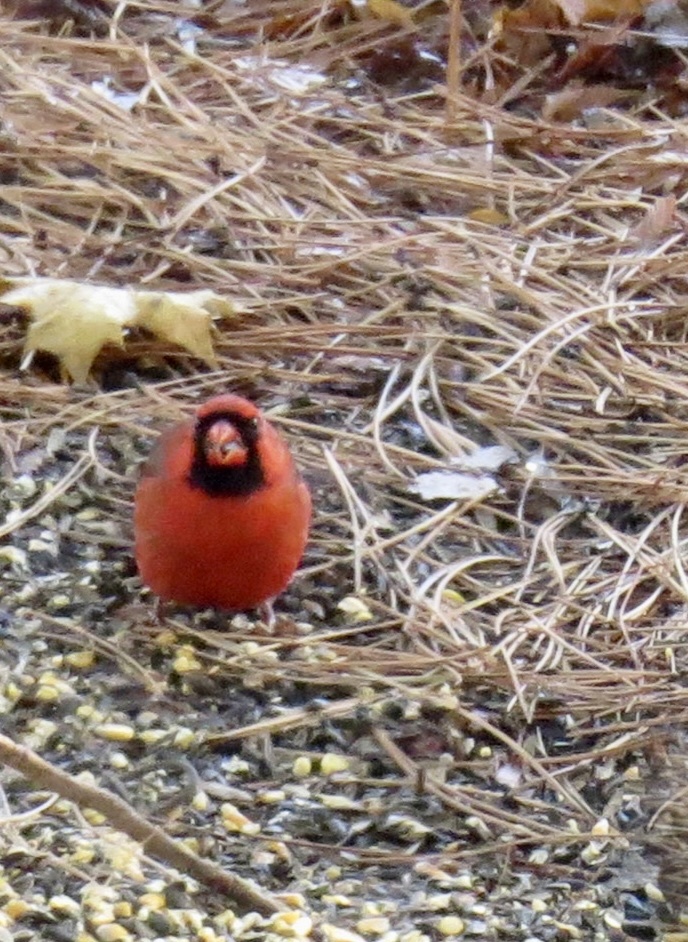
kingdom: Animalia
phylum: Chordata
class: Aves
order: Passeriformes
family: Cardinalidae
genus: Cardinalis
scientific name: Cardinalis cardinalis
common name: Northern cardinal
